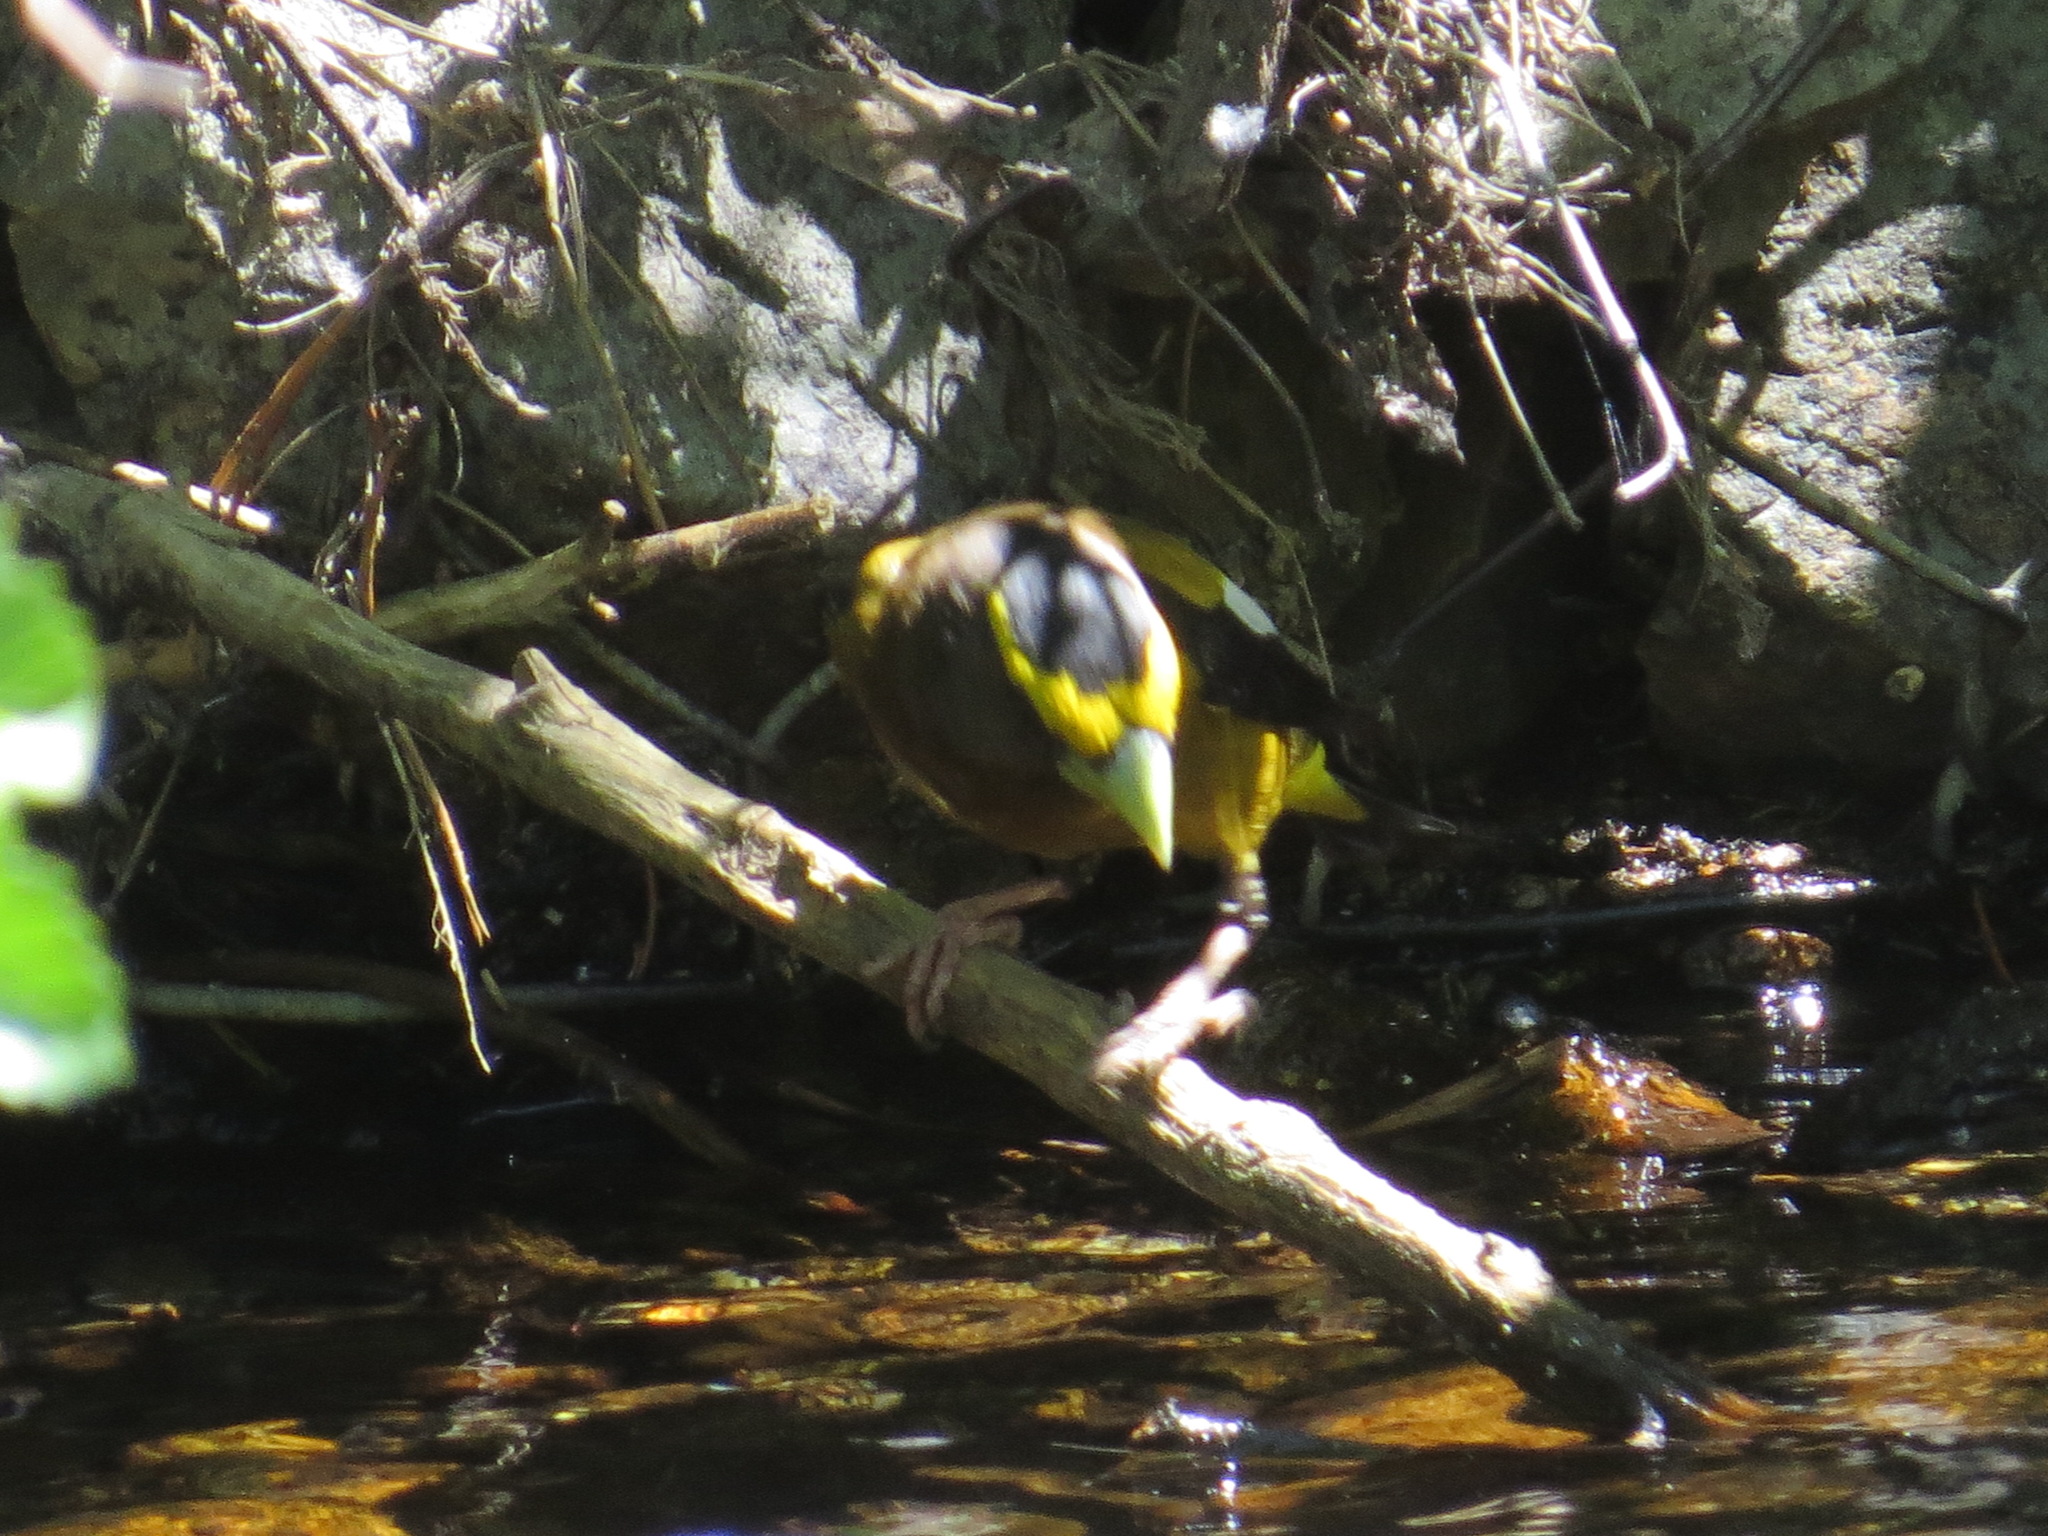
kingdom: Animalia
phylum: Chordata
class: Aves
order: Passeriformes
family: Fringillidae
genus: Hesperiphona
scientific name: Hesperiphona vespertina
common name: Evening grosbeak
